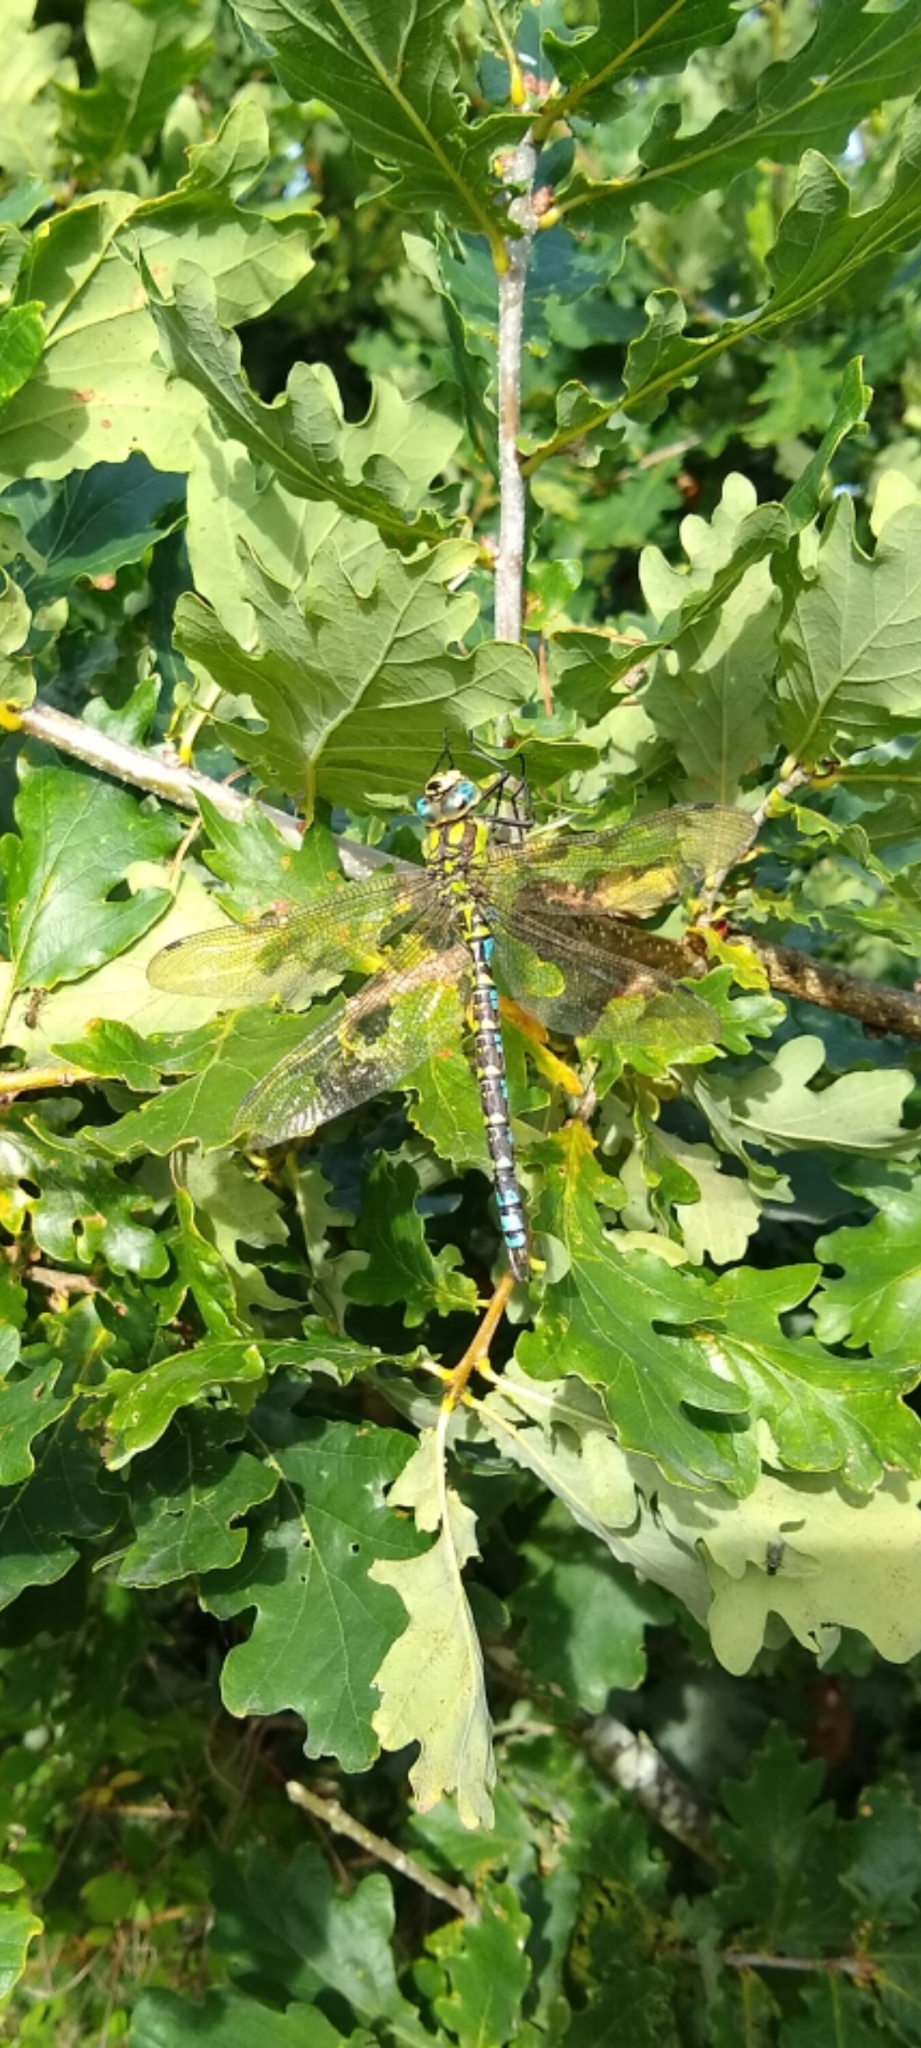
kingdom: Animalia
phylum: Arthropoda
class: Insecta
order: Odonata
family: Aeshnidae
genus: Aeshna
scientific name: Aeshna cyanea
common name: Southern hawker
